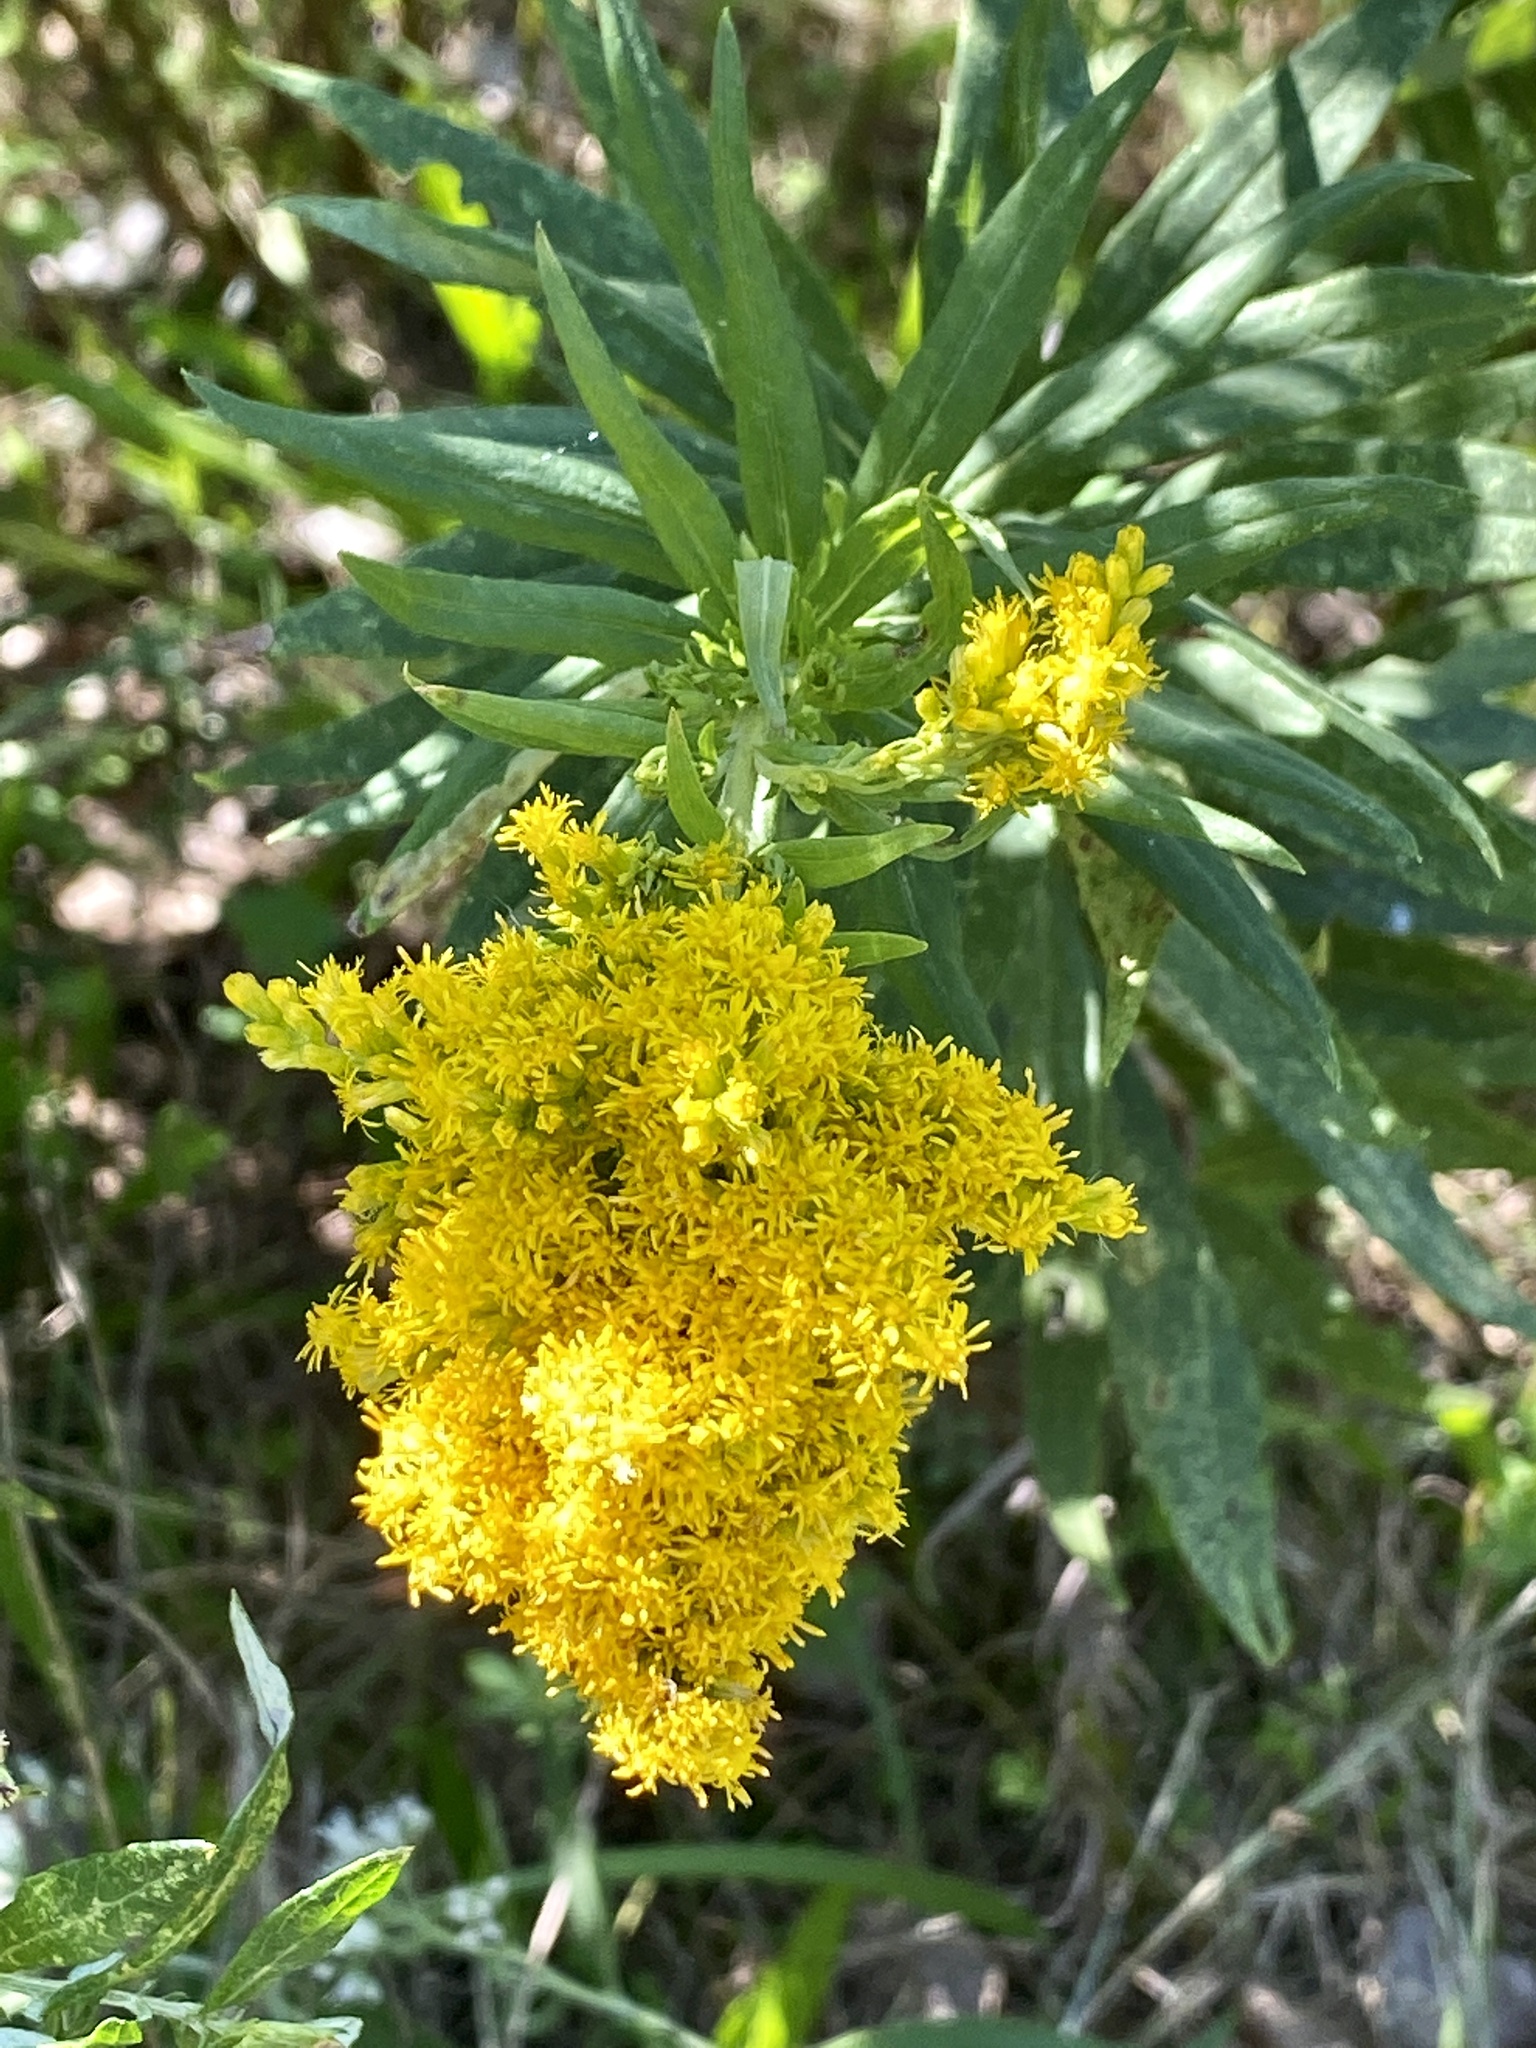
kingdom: Plantae
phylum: Tracheophyta
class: Magnoliopsida
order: Asterales
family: Asteraceae
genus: Solidago
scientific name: Solidago altissima
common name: Late goldenrod
